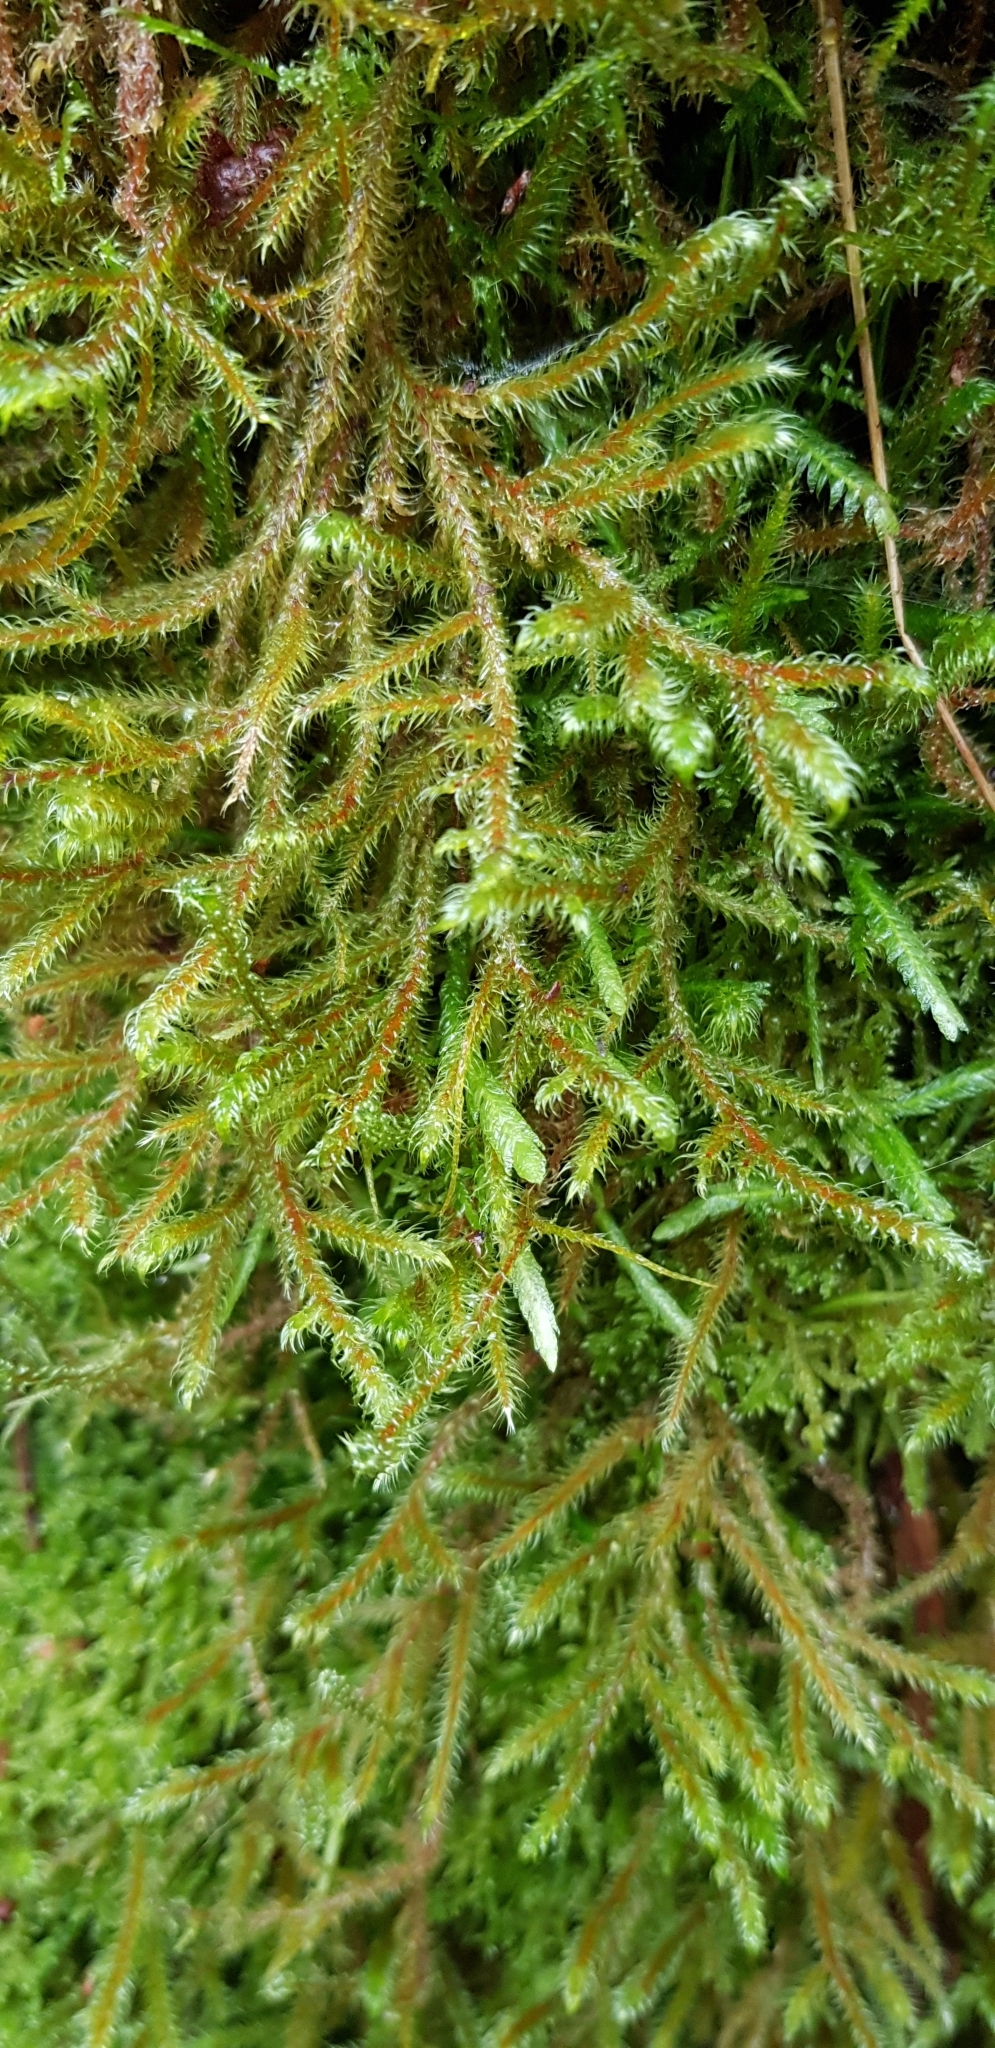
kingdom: Plantae
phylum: Bryophyta
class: Bryopsida
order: Hypnales
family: Hylocomiaceae
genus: Rhytidiadelphus
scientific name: Rhytidiadelphus loreus
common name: Lanky moss
